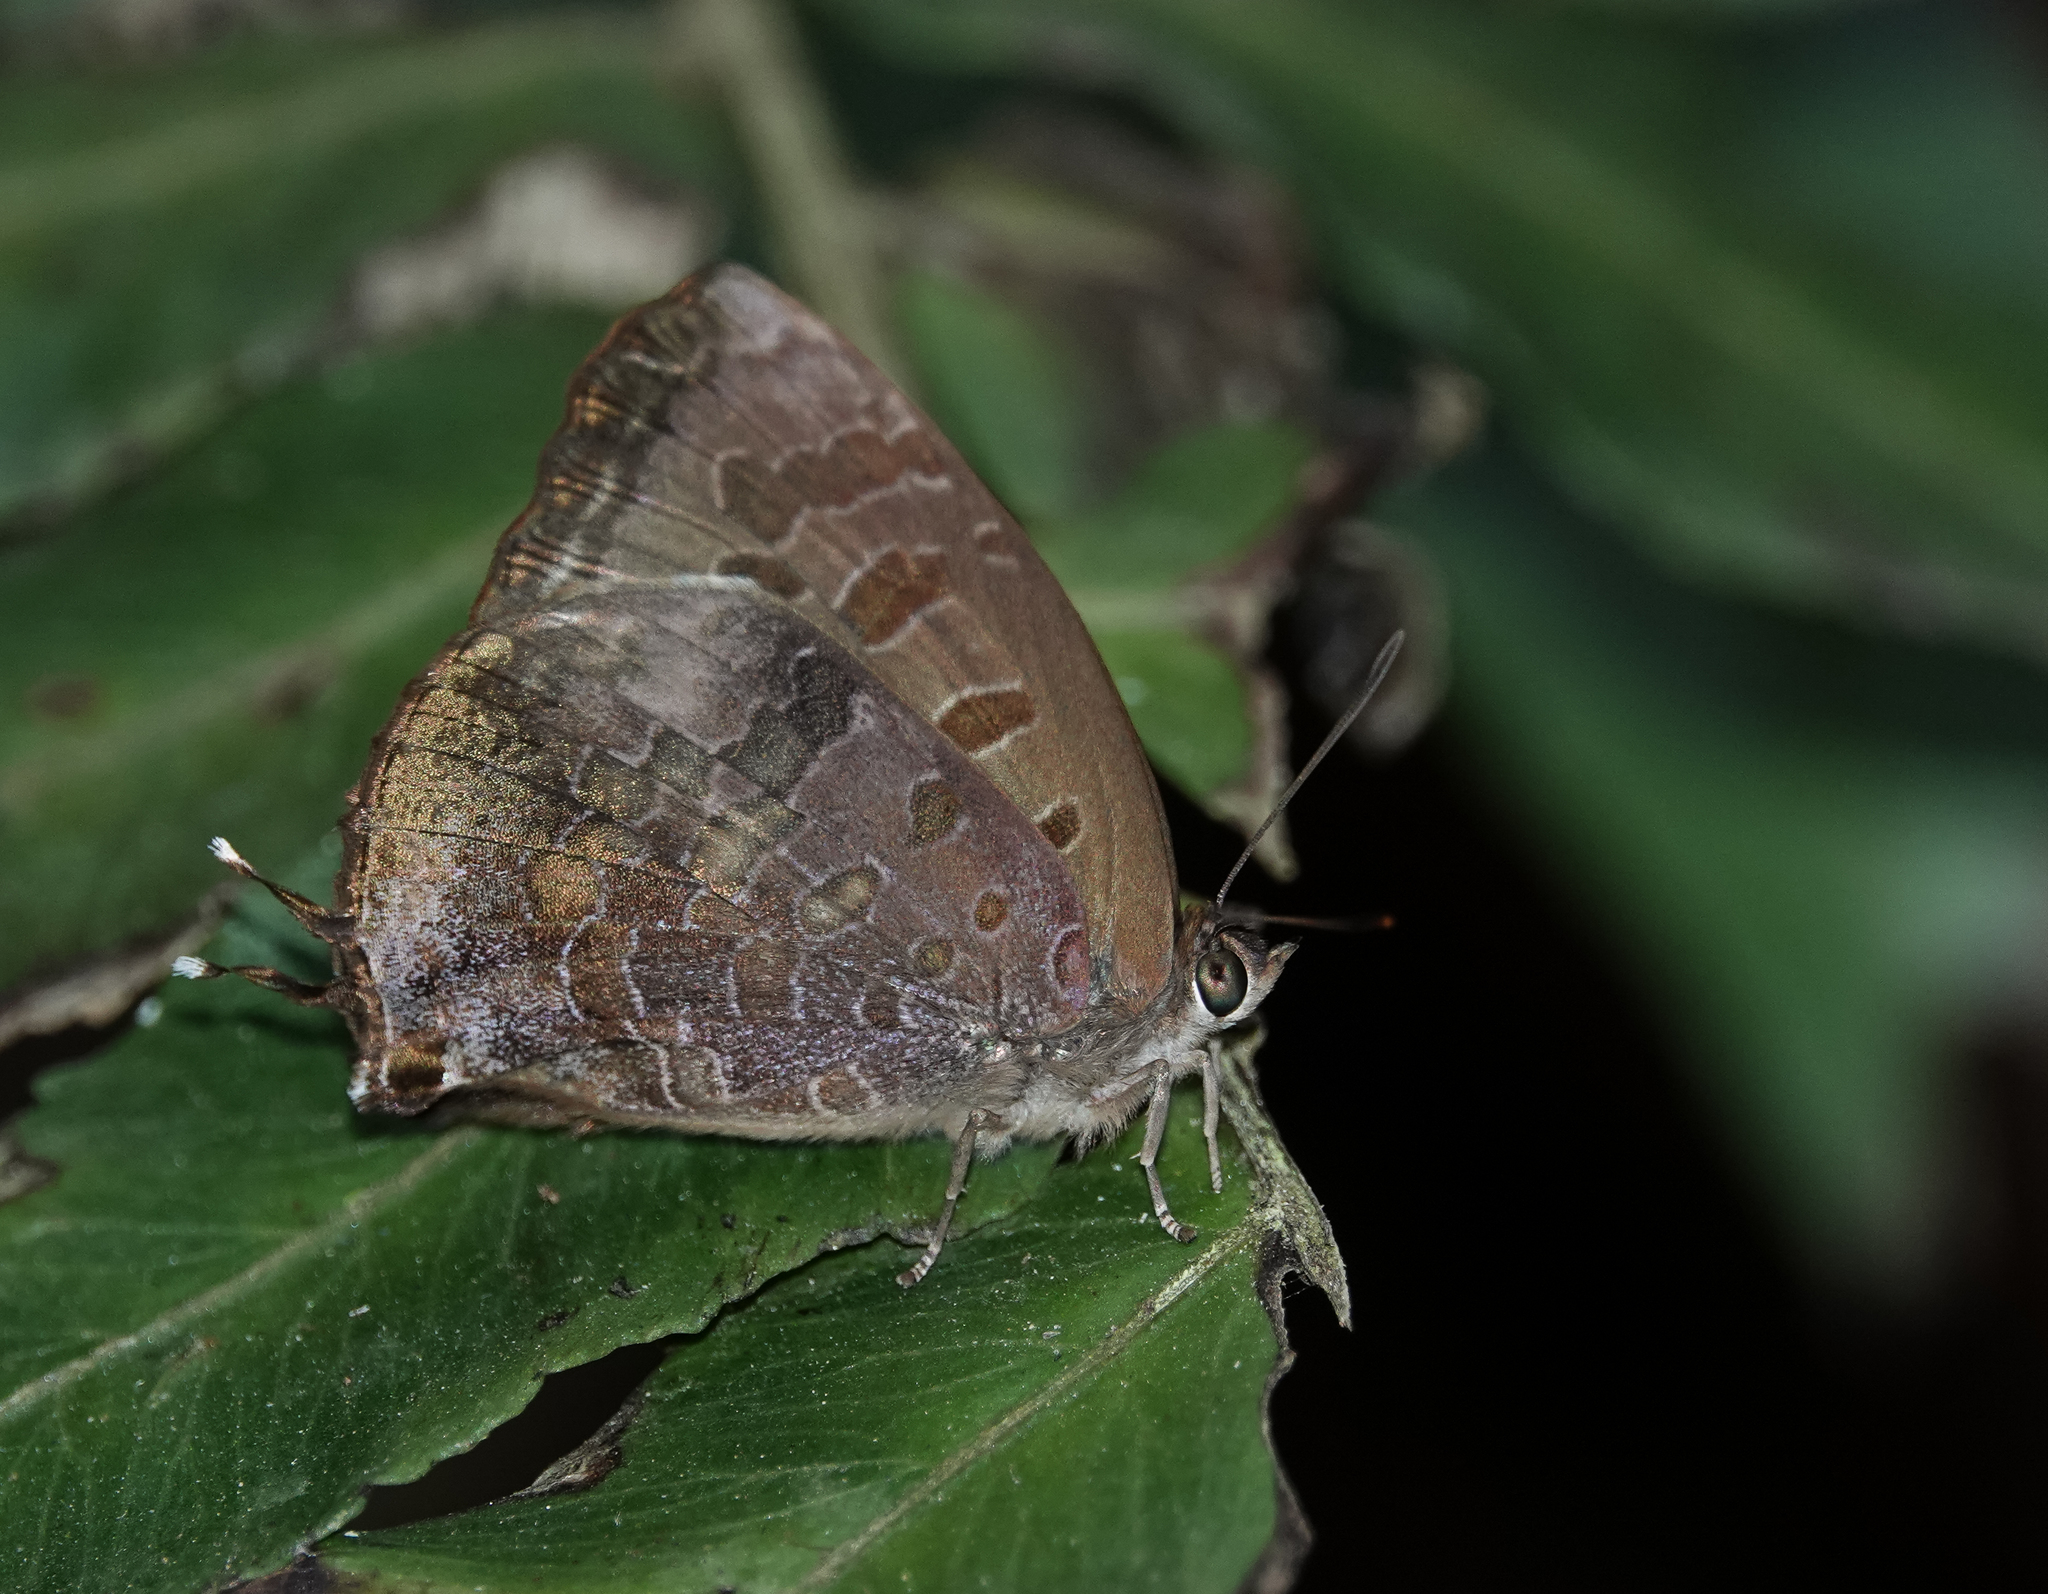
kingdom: Animalia
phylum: Arthropoda
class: Insecta
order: Lepidoptera
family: Lycaenidae
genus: Arhopala
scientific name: Arhopala bazalus
